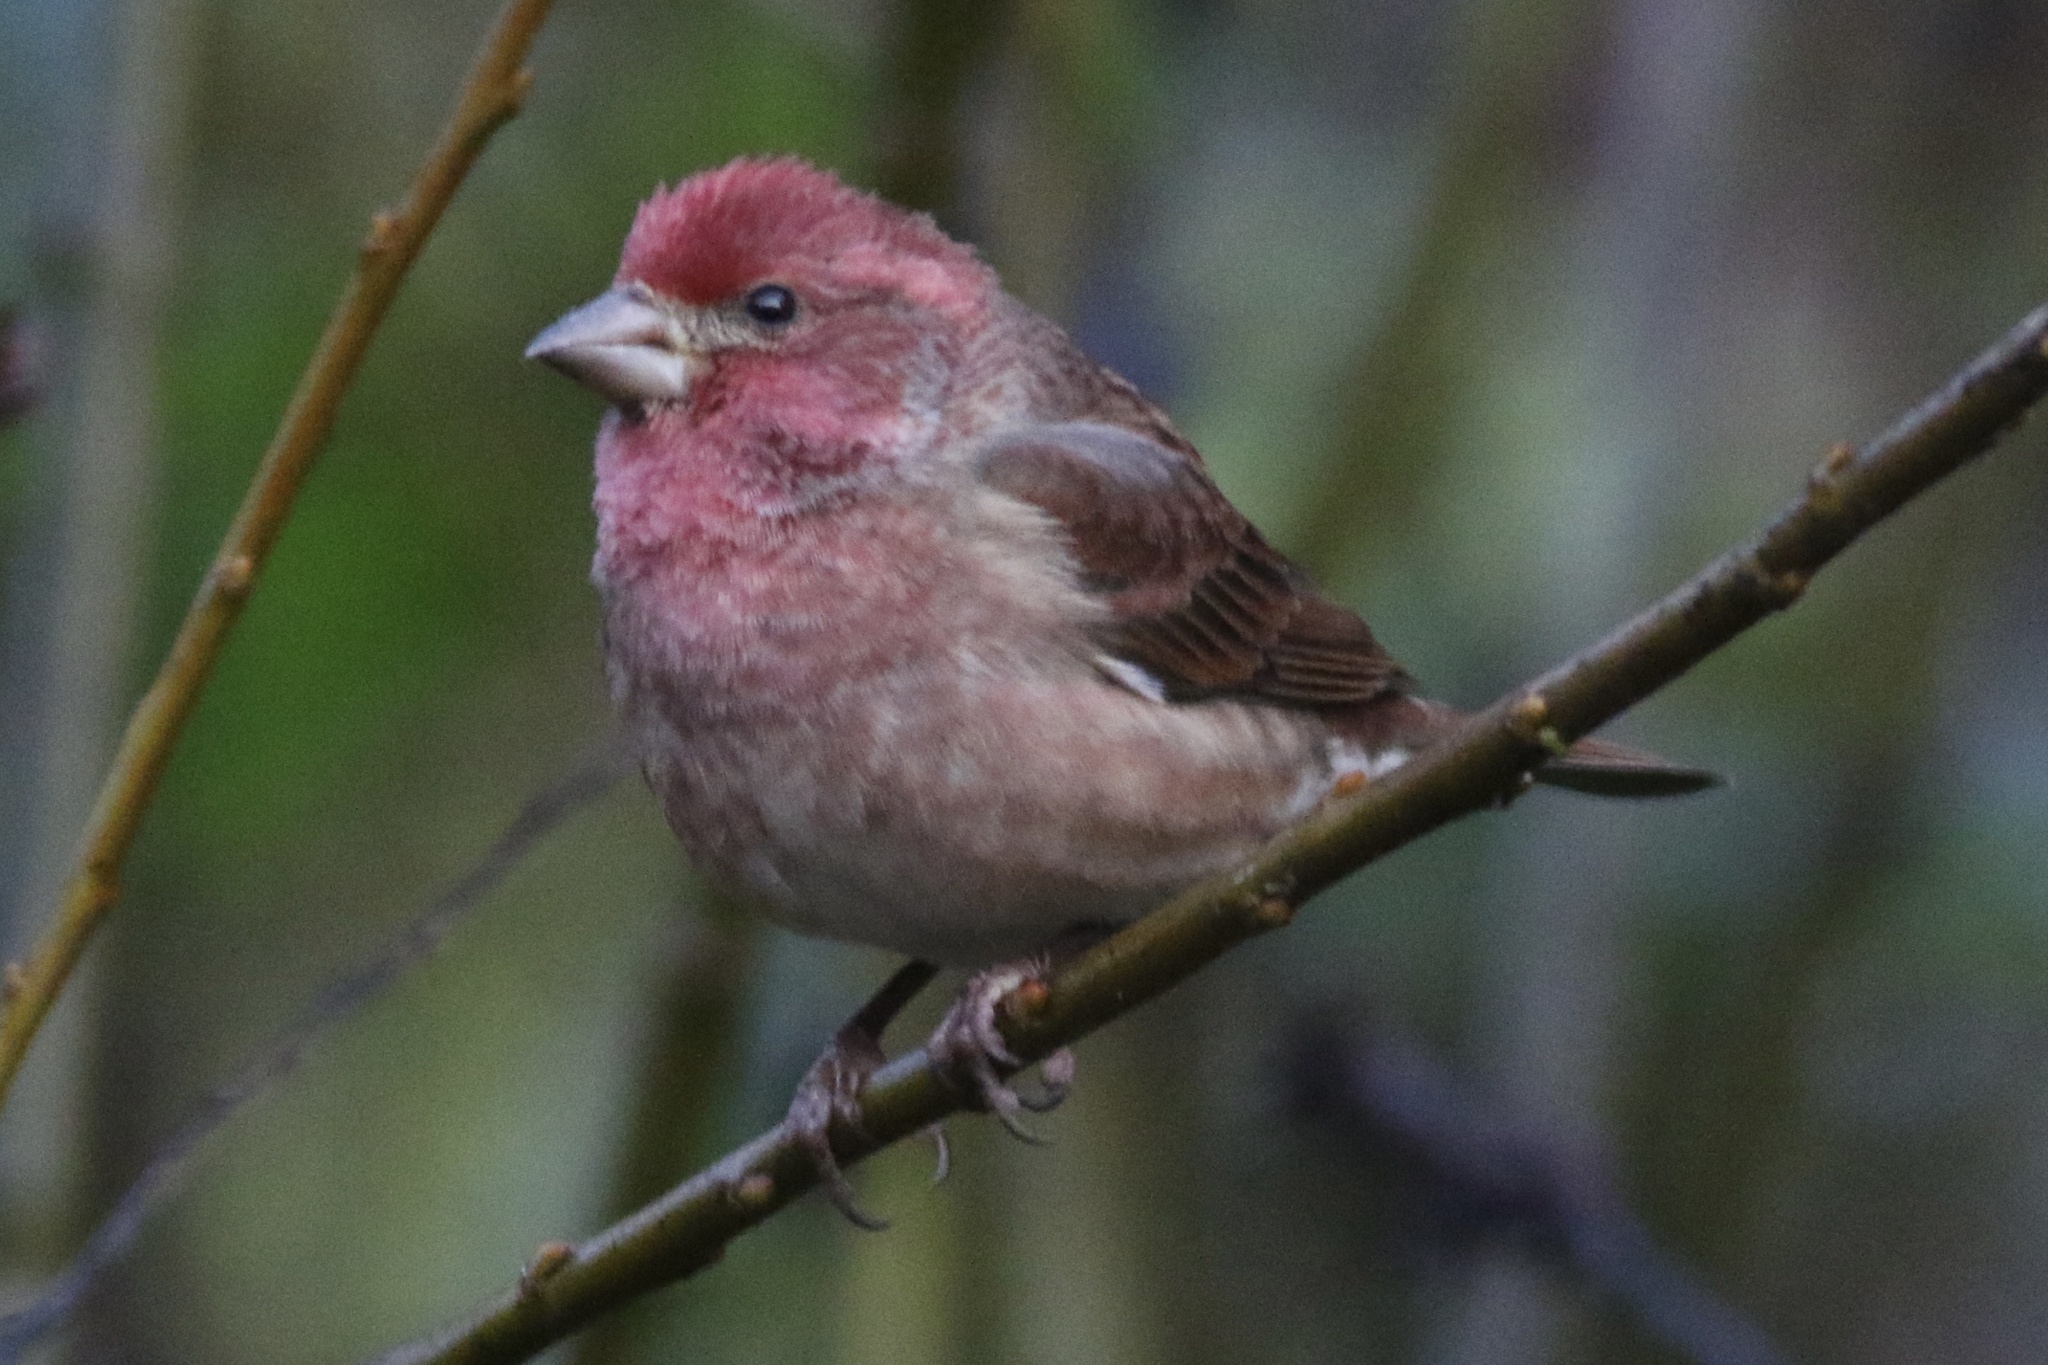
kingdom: Animalia
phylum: Chordata
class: Aves
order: Passeriformes
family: Fringillidae
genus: Haemorhous
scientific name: Haemorhous purpureus
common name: Purple finch
